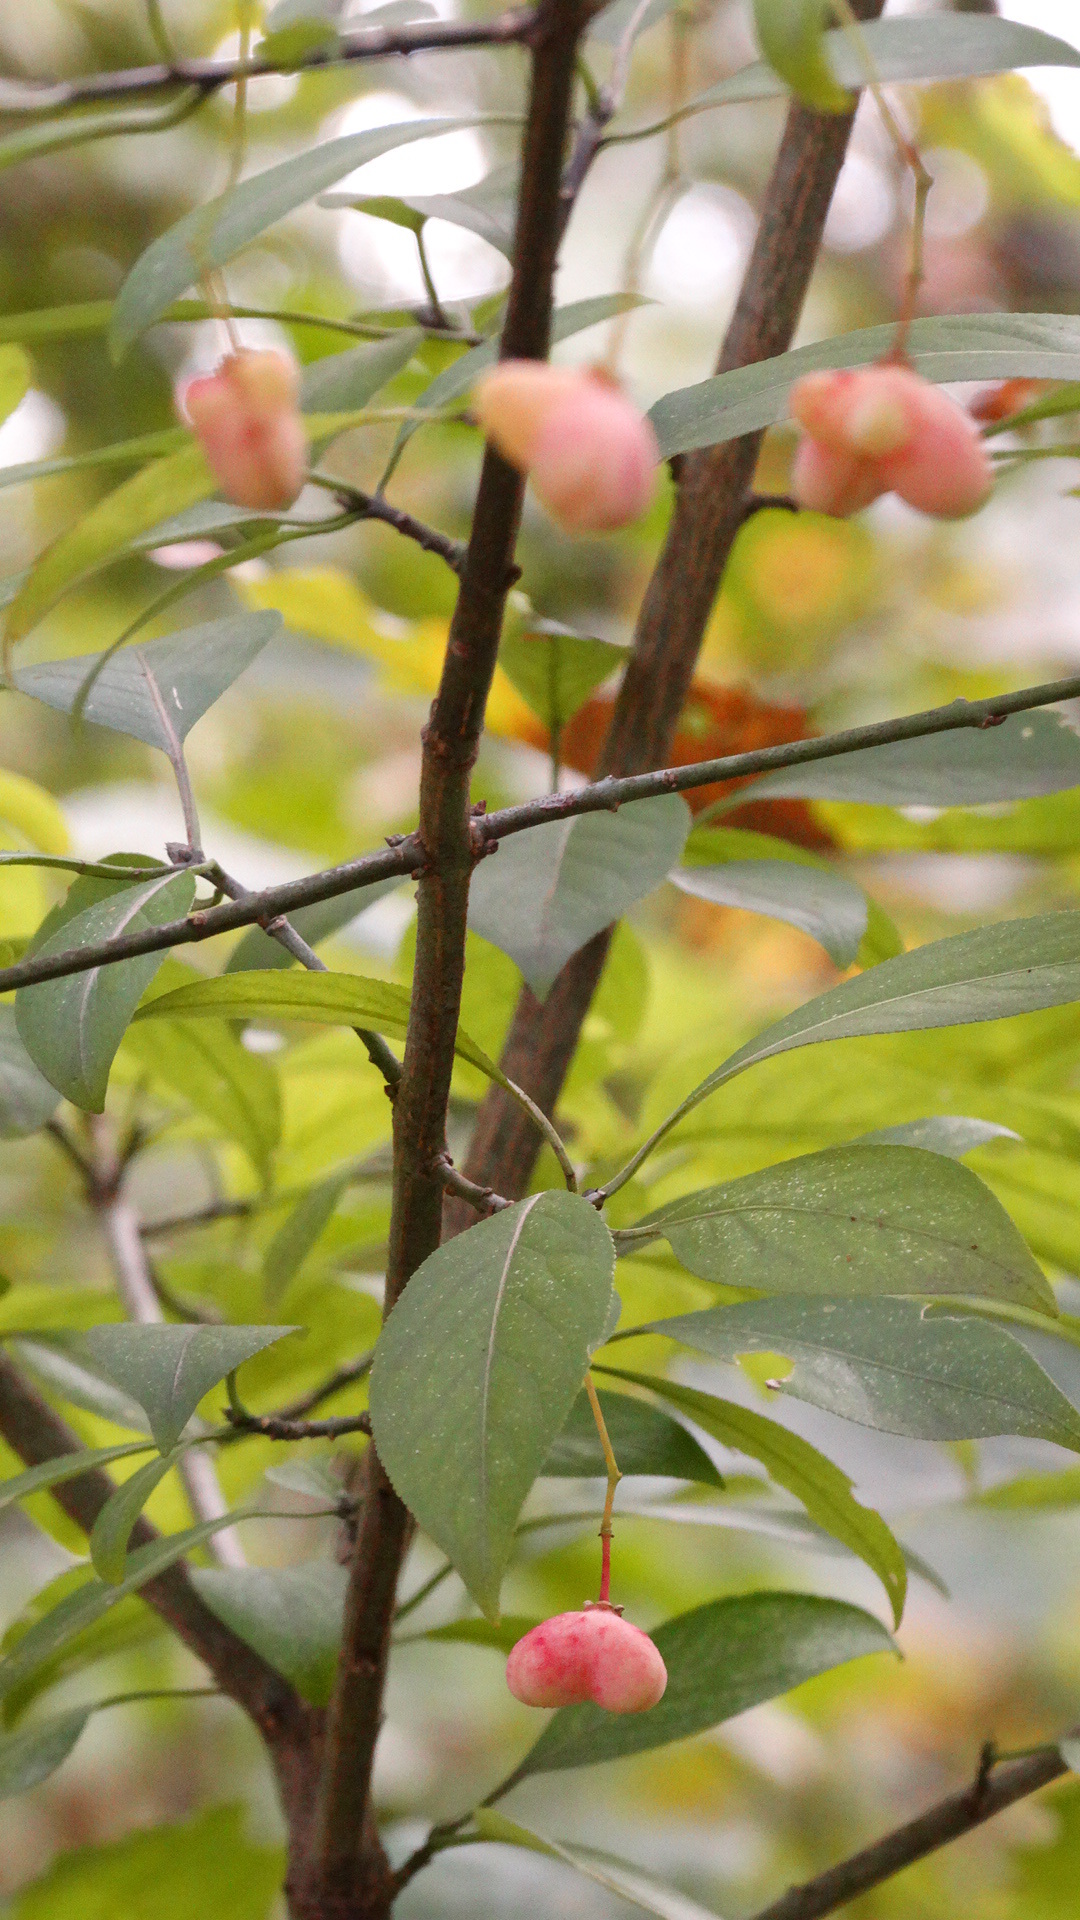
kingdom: Plantae
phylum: Tracheophyta
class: Magnoliopsida
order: Celastrales
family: Celastraceae
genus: Euonymus
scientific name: Euonymus atropurpureus
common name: Eastern wahoo
